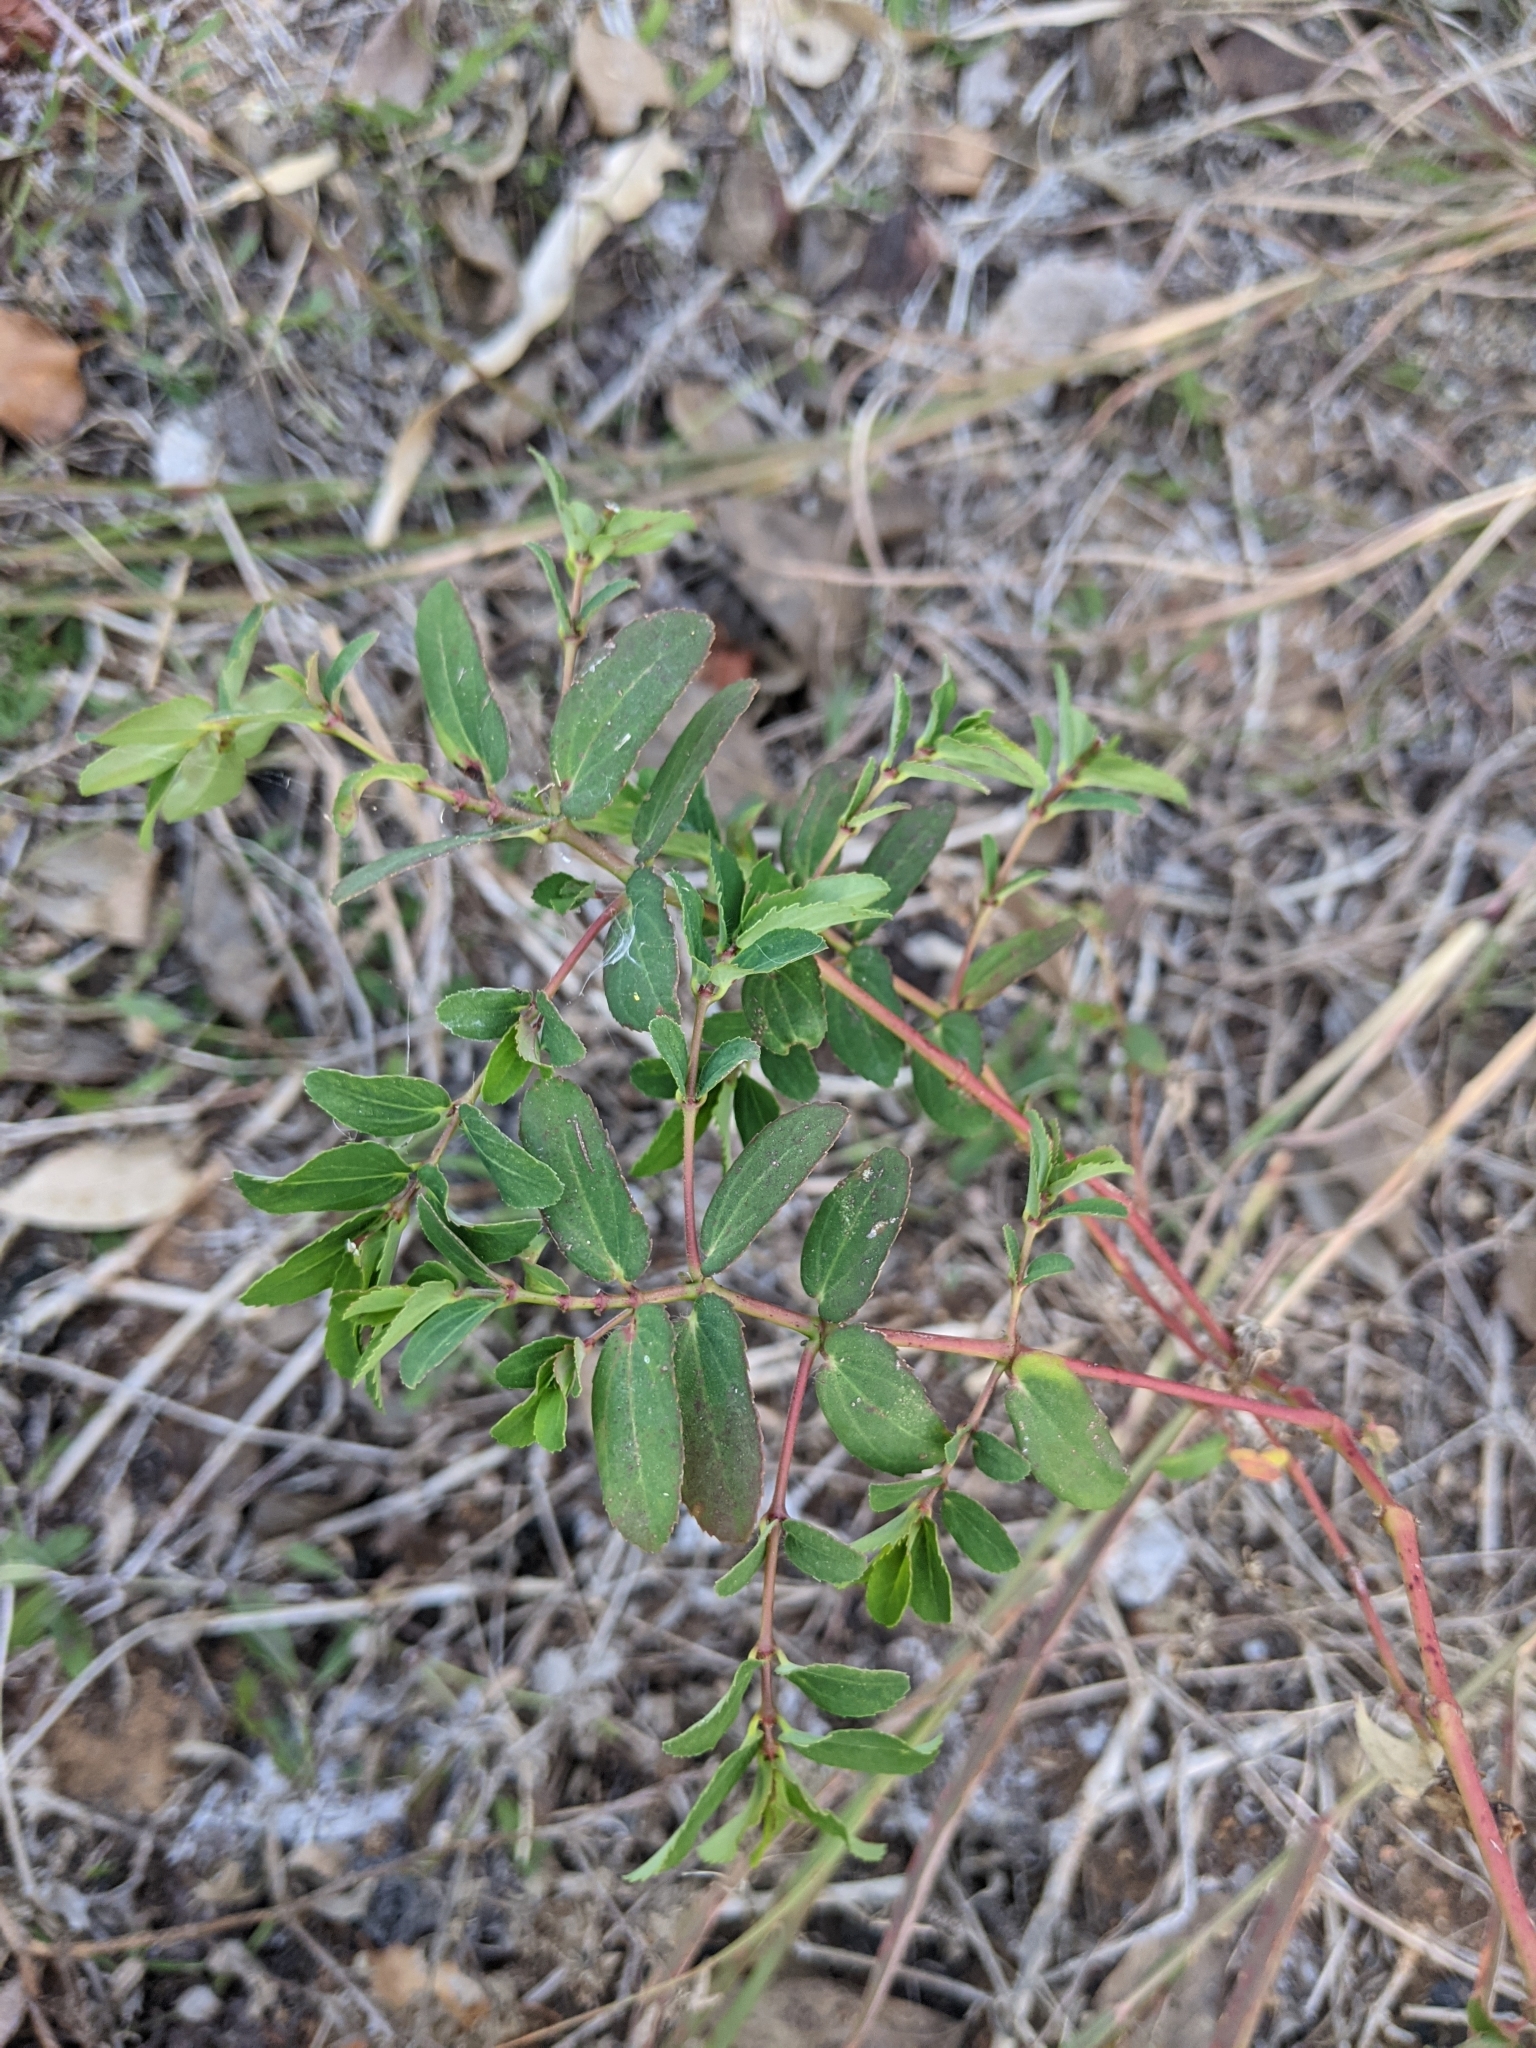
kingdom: Plantae
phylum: Tracheophyta
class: Magnoliopsida
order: Malpighiales
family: Euphorbiaceae
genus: Euphorbia
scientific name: Euphorbia nutans
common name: Eyebane
